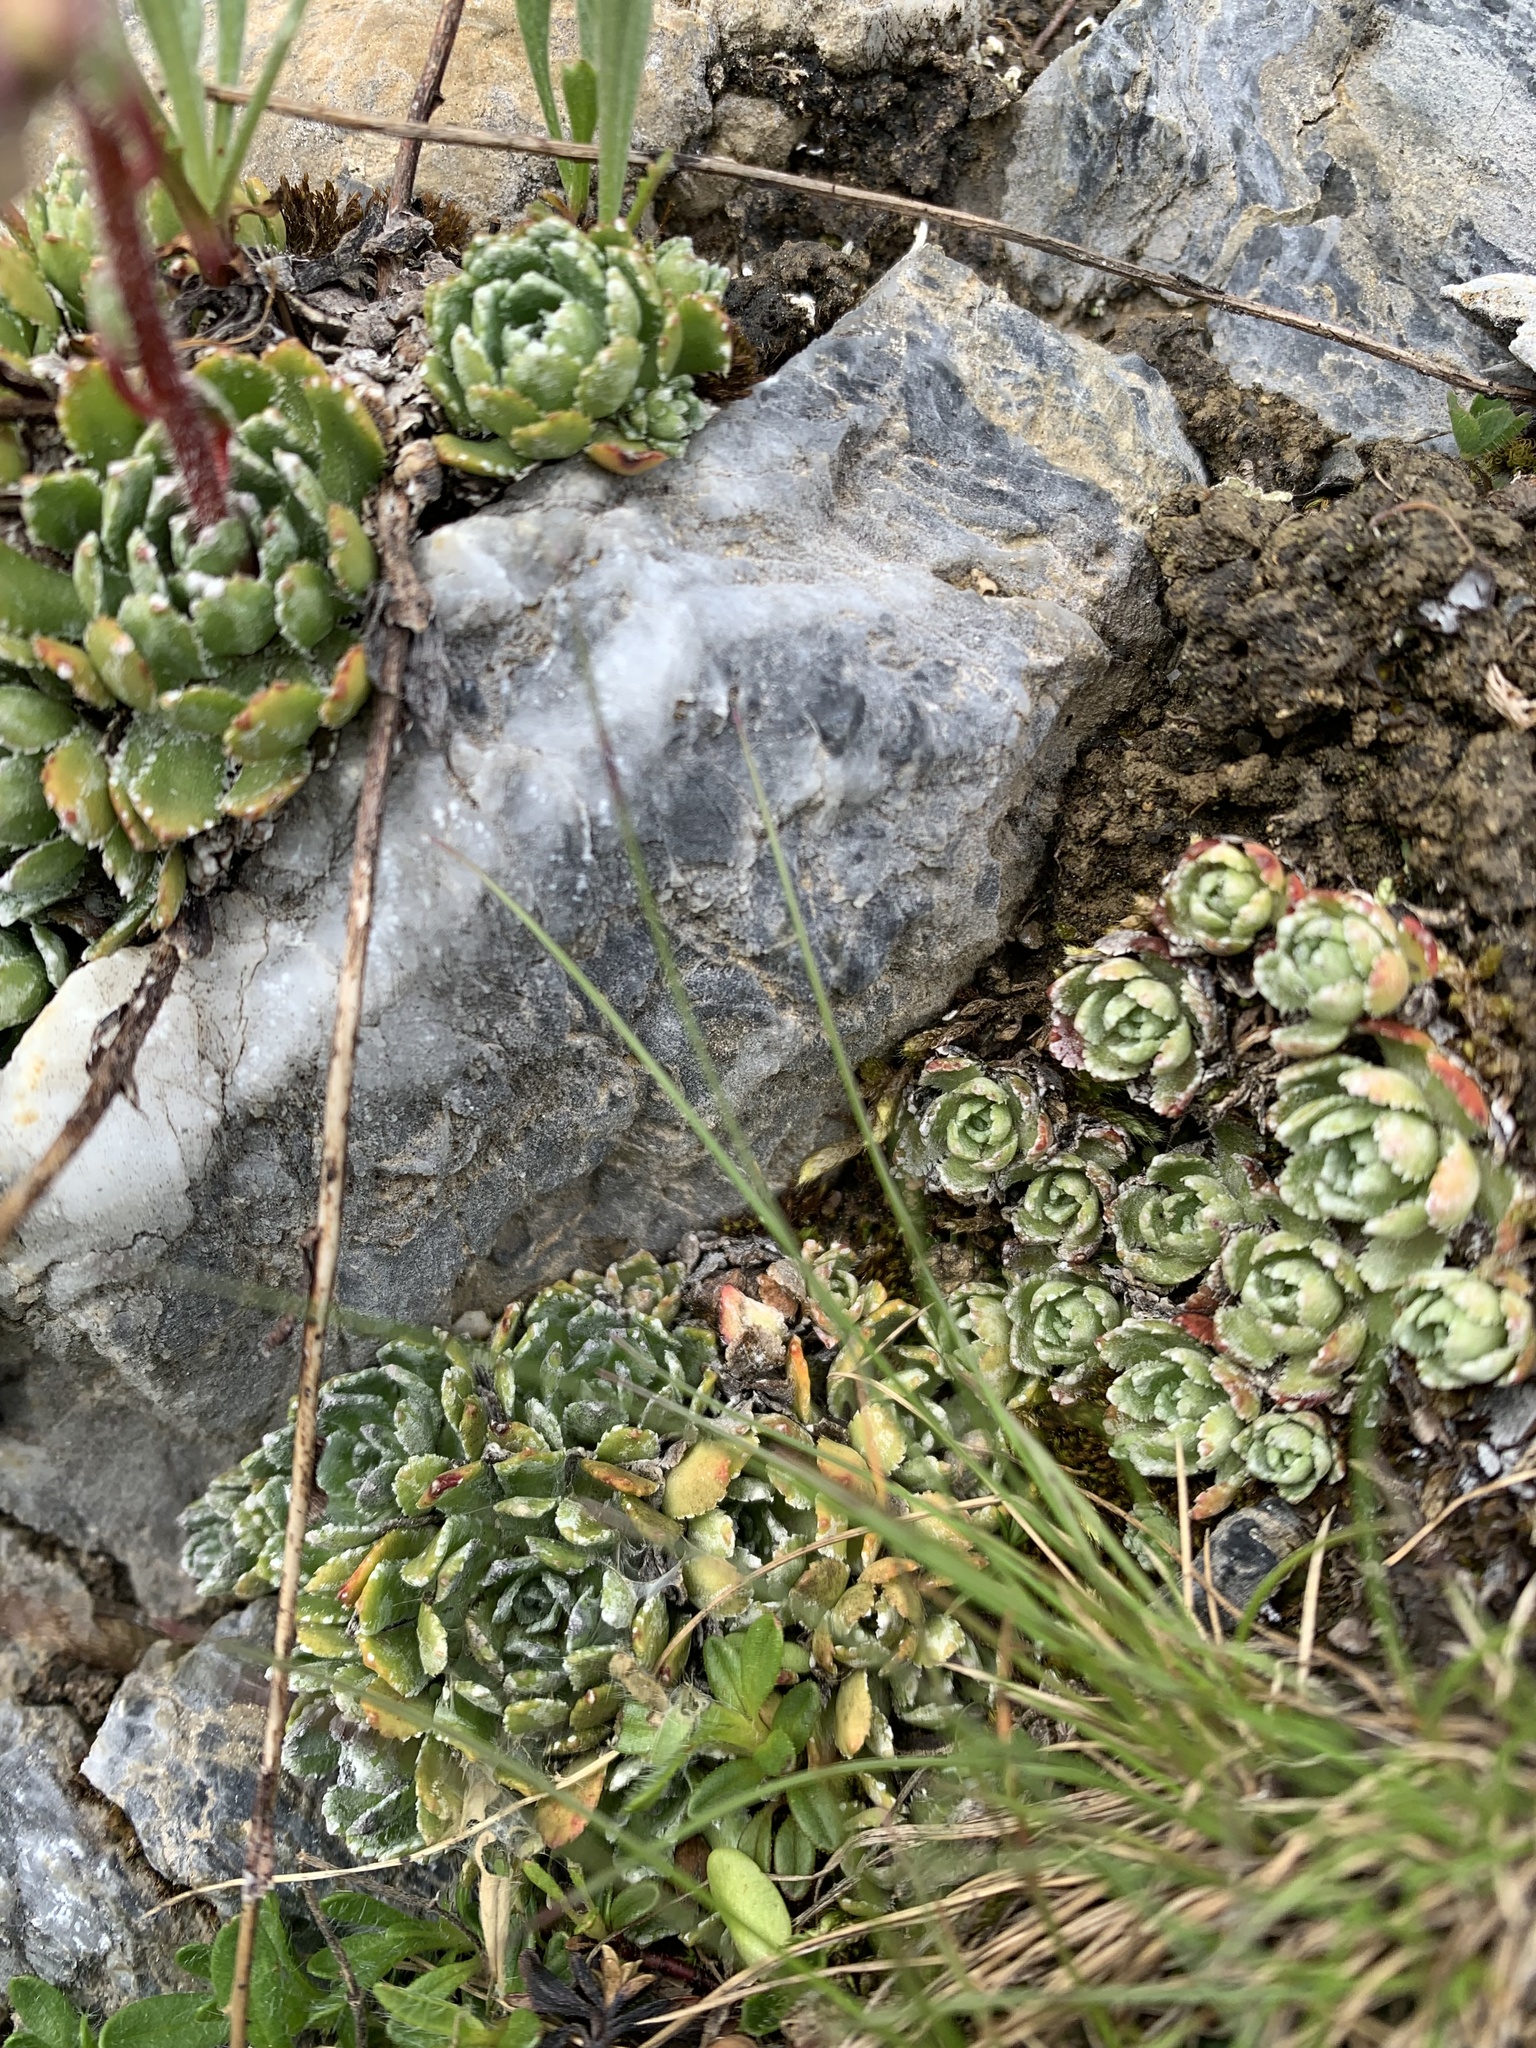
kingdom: Plantae
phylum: Tracheophyta
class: Magnoliopsida
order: Saxifragales
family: Saxifragaceae
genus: Saxifraga
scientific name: Saxifraga paniculata
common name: Livelong saxifrage
